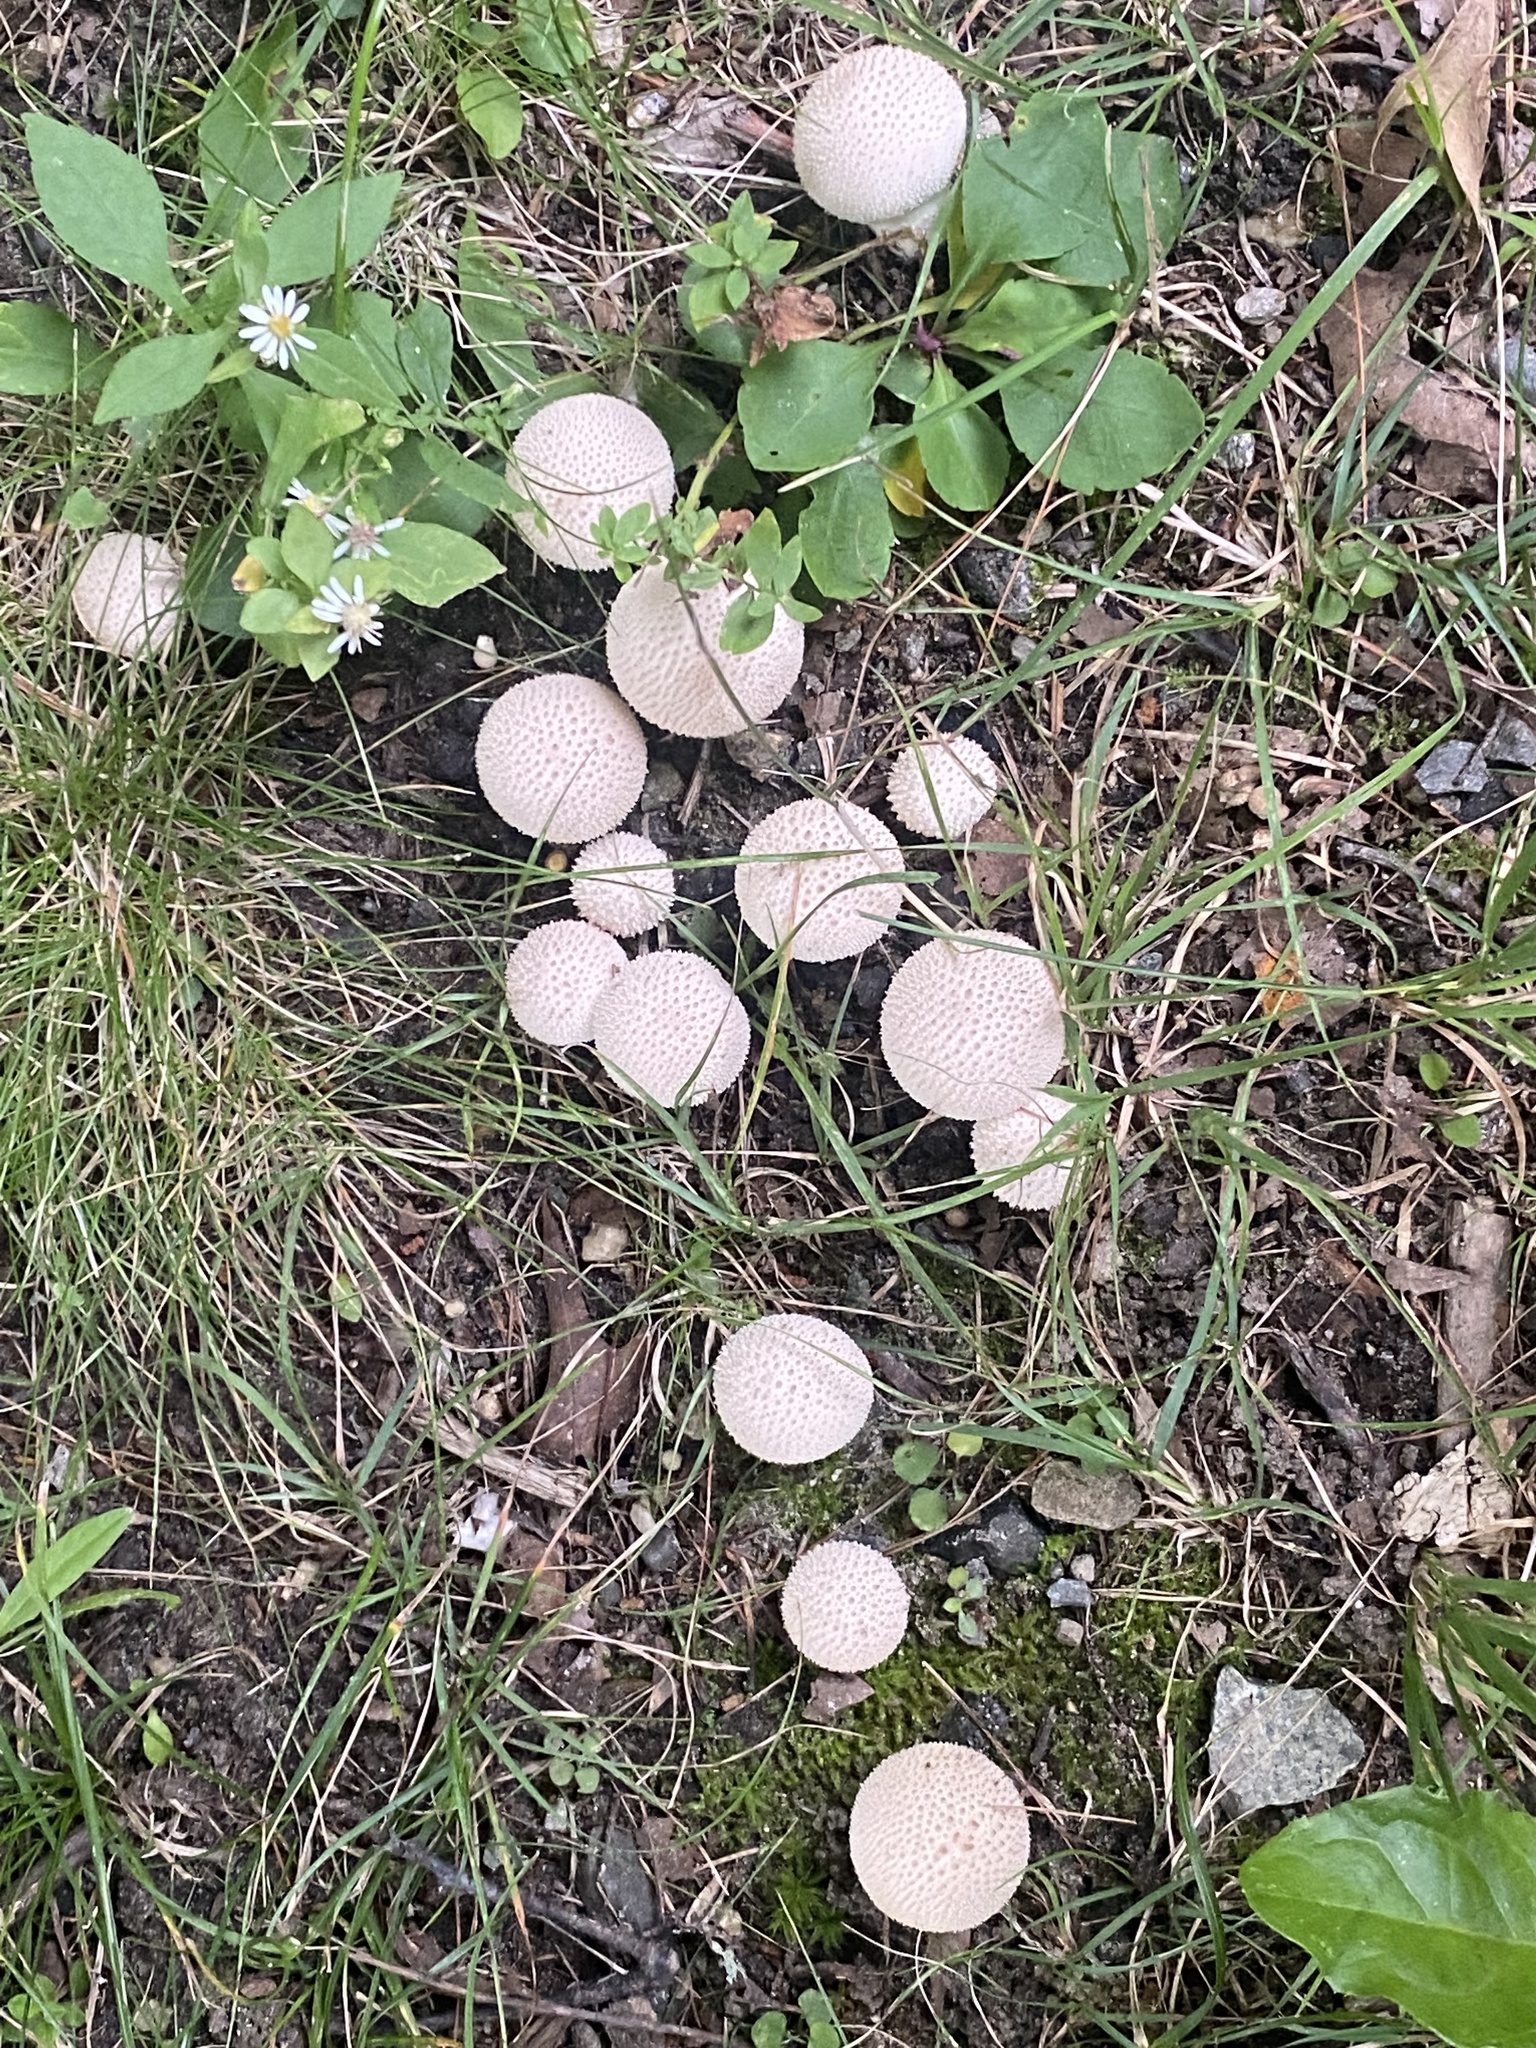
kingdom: Fungi
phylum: Basidiomycota
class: Agaricomycetes
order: Agaricales
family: Lycoperdaceae
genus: Lycoperdon
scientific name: Lycoperdon perlatum
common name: Common puffball
